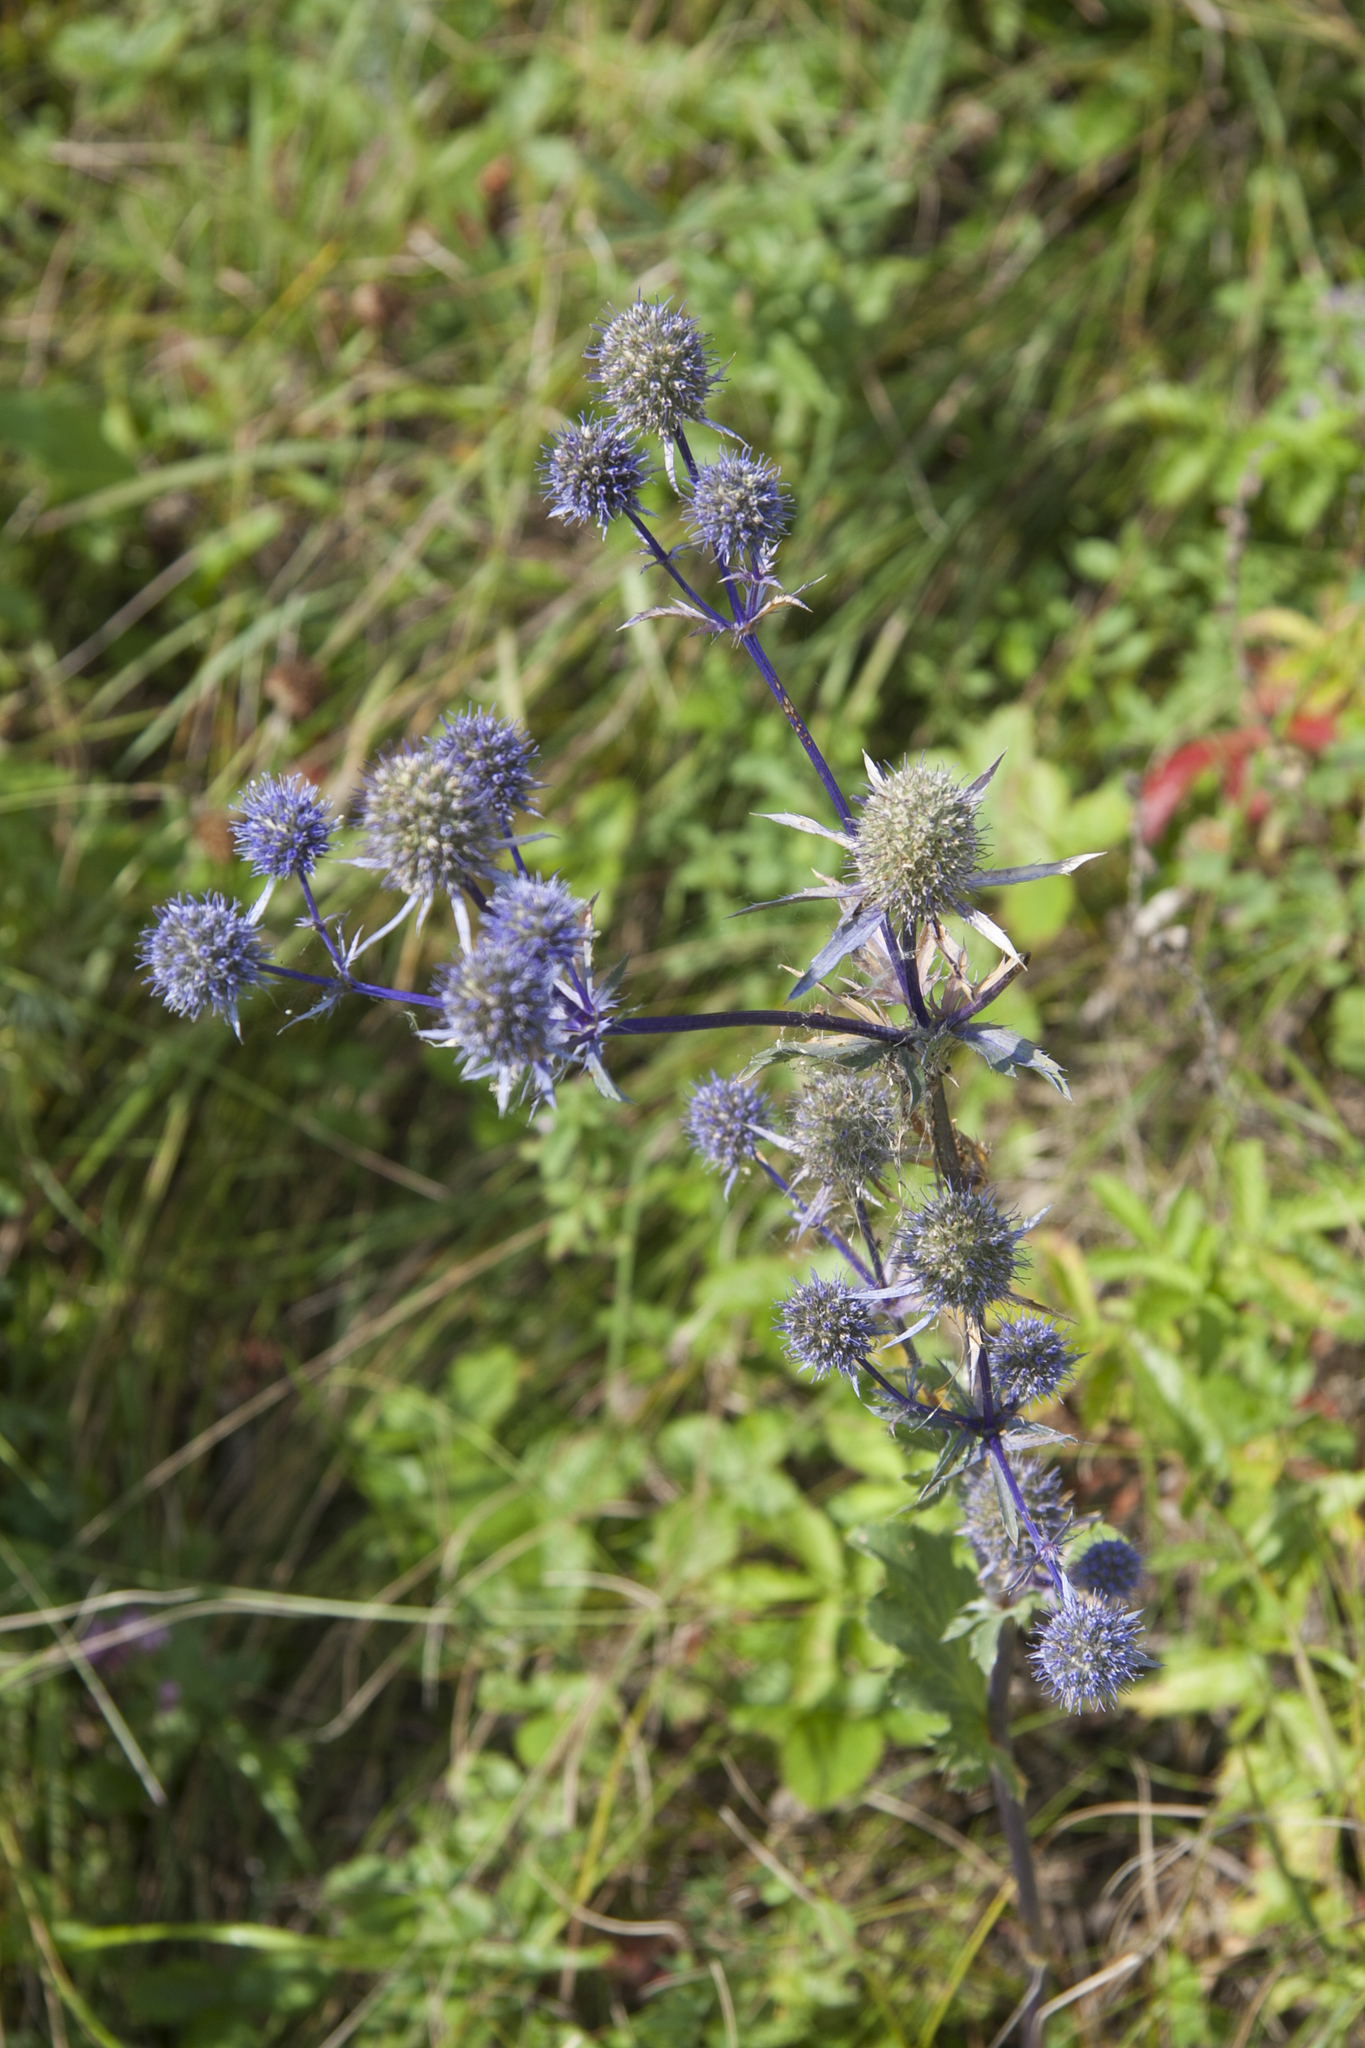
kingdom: Plantae
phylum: Tracheophyta
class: Magnoliopsida
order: Apiales
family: Apiaceae
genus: Eryngium
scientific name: Eryngium planum
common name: Blue eryngo
